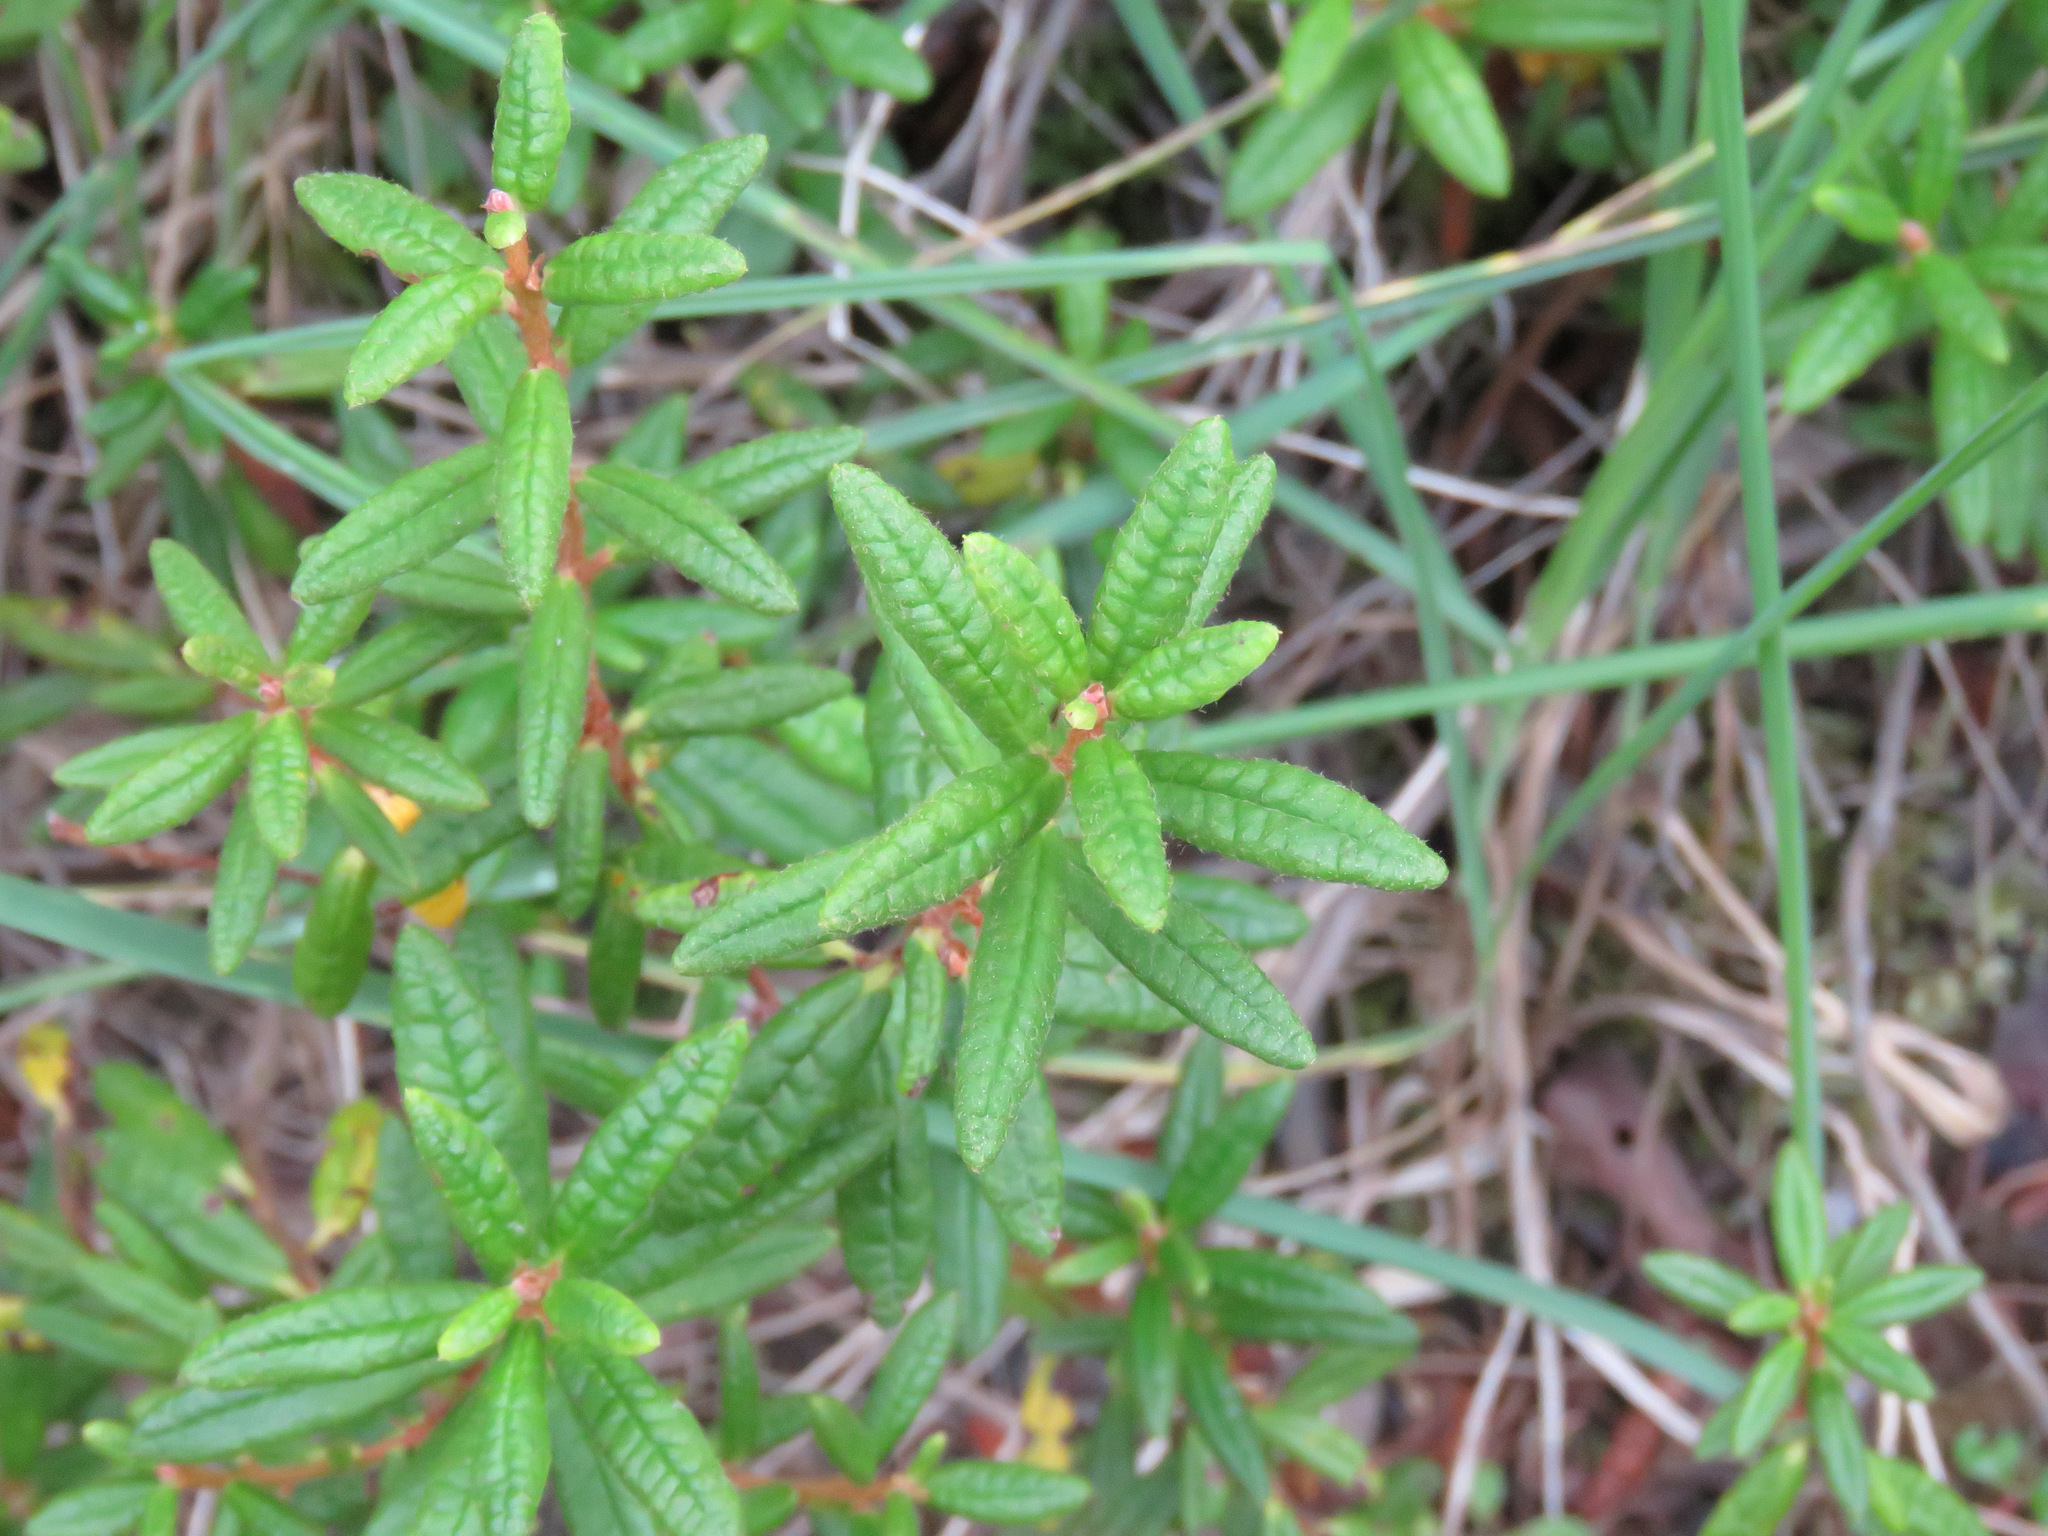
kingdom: Plantae
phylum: Tracheophyta
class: Magnoliopsida
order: Ericales
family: Ericaceae
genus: Rhododendron
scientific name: Rhododendron groenlandicum
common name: Bog labrador tea
